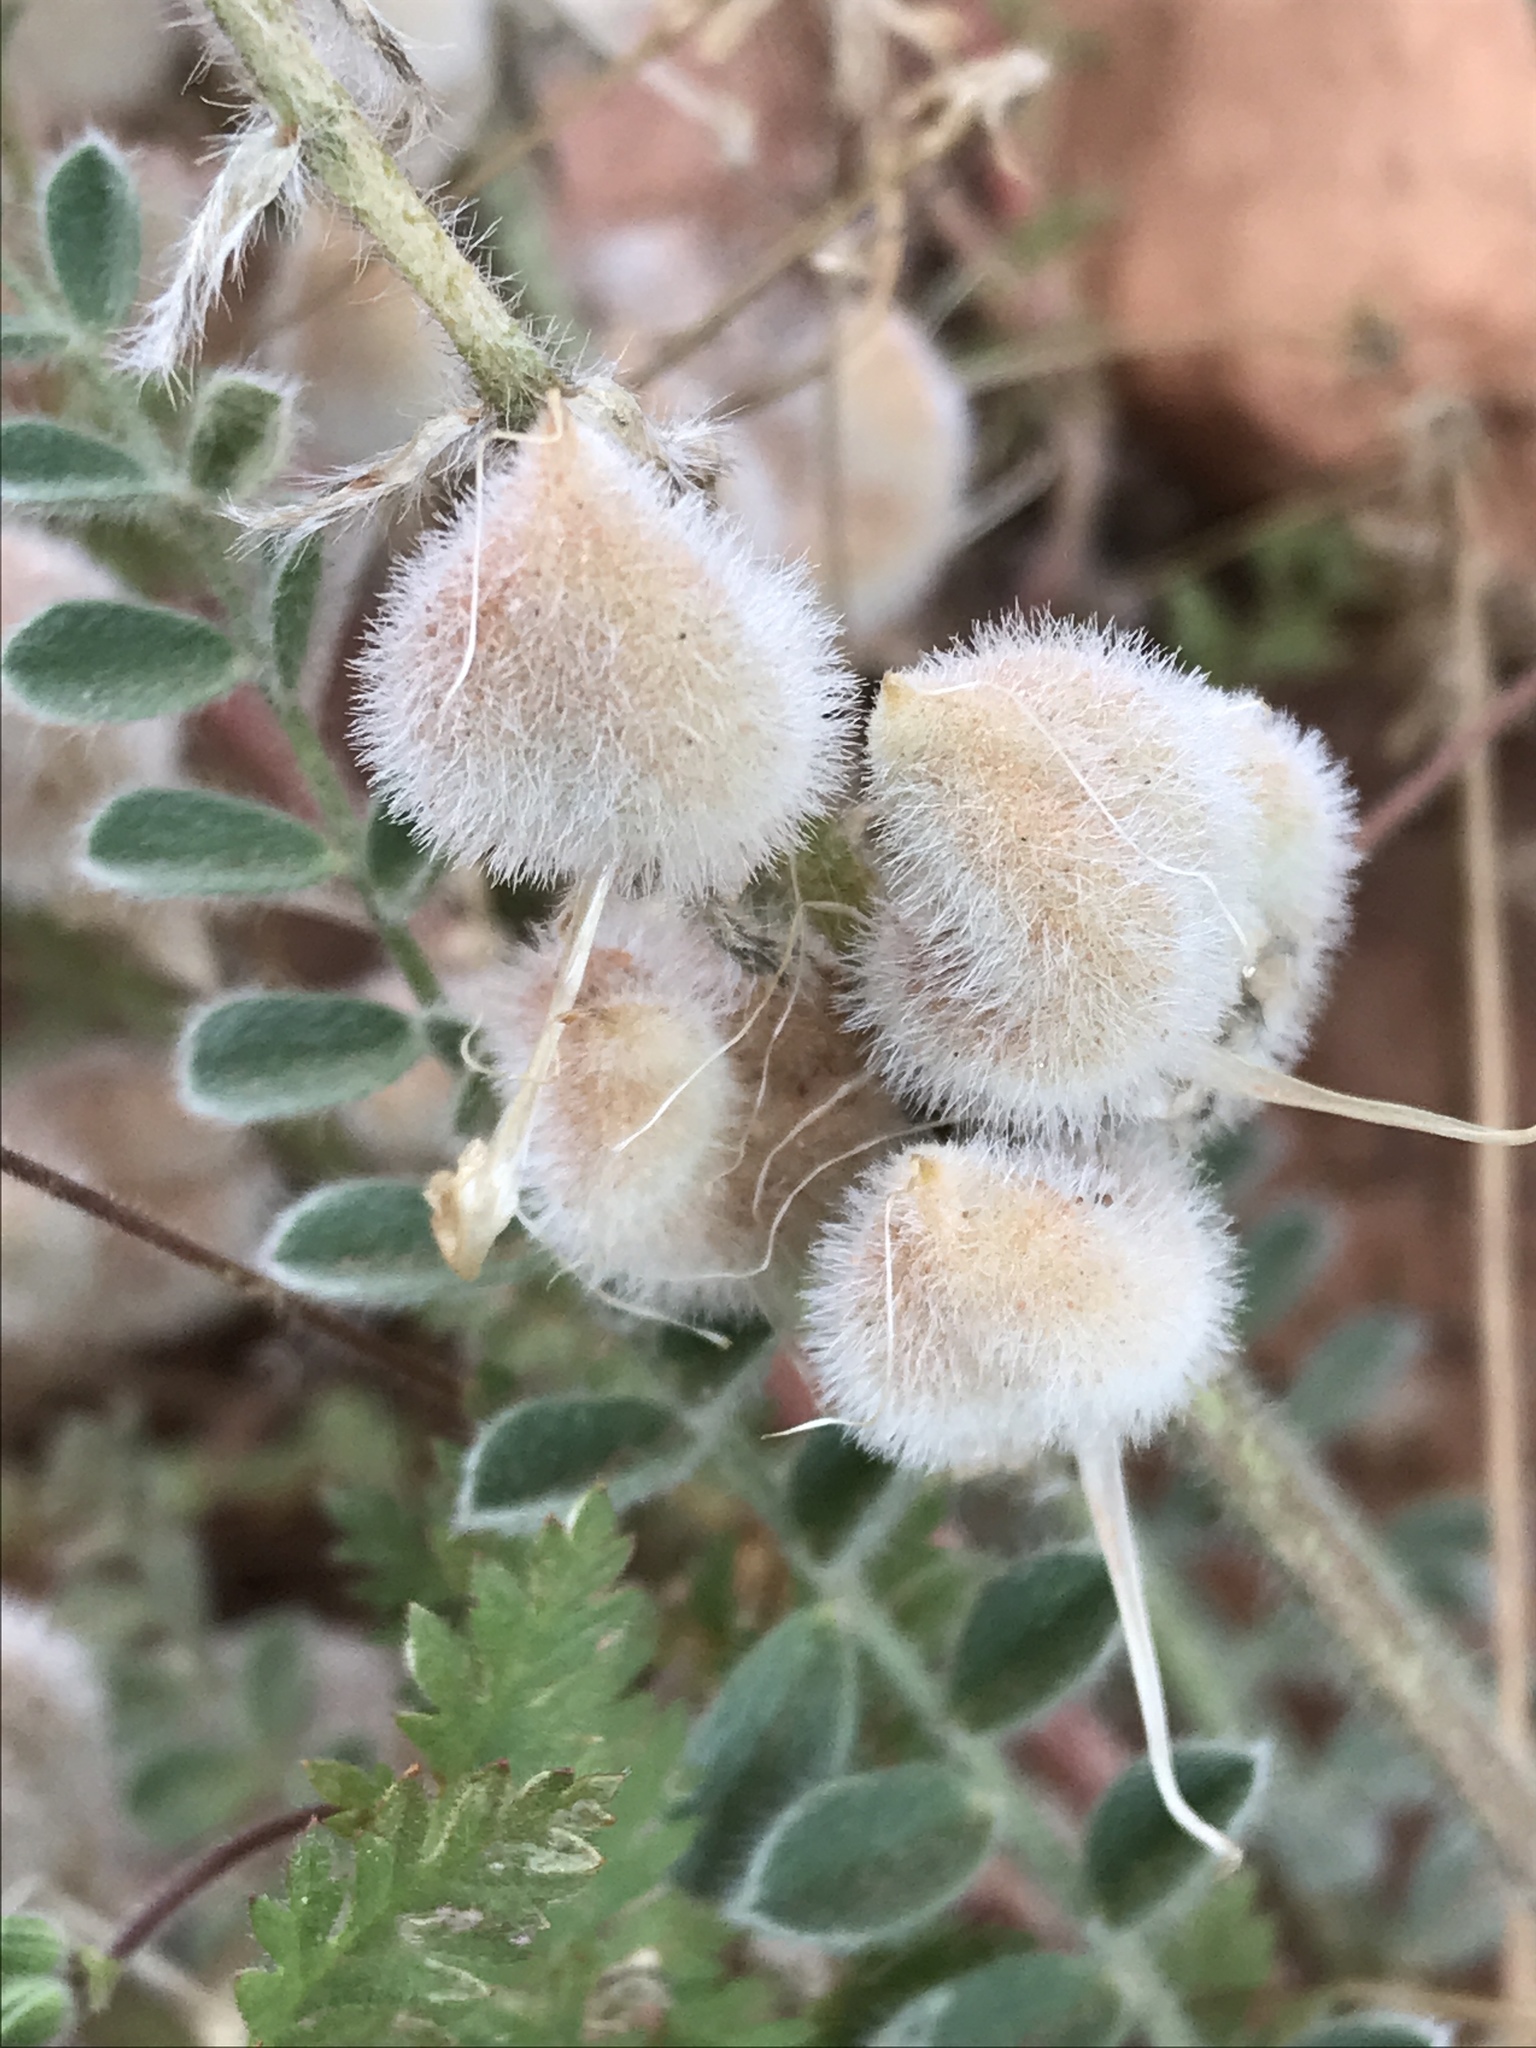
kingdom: Plantae
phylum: Tracheophyta
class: Magnoliopsida
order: Fabales
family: Fabaceae
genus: Astragalus
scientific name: Astragalus mollissimus
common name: Woolly locoweed
